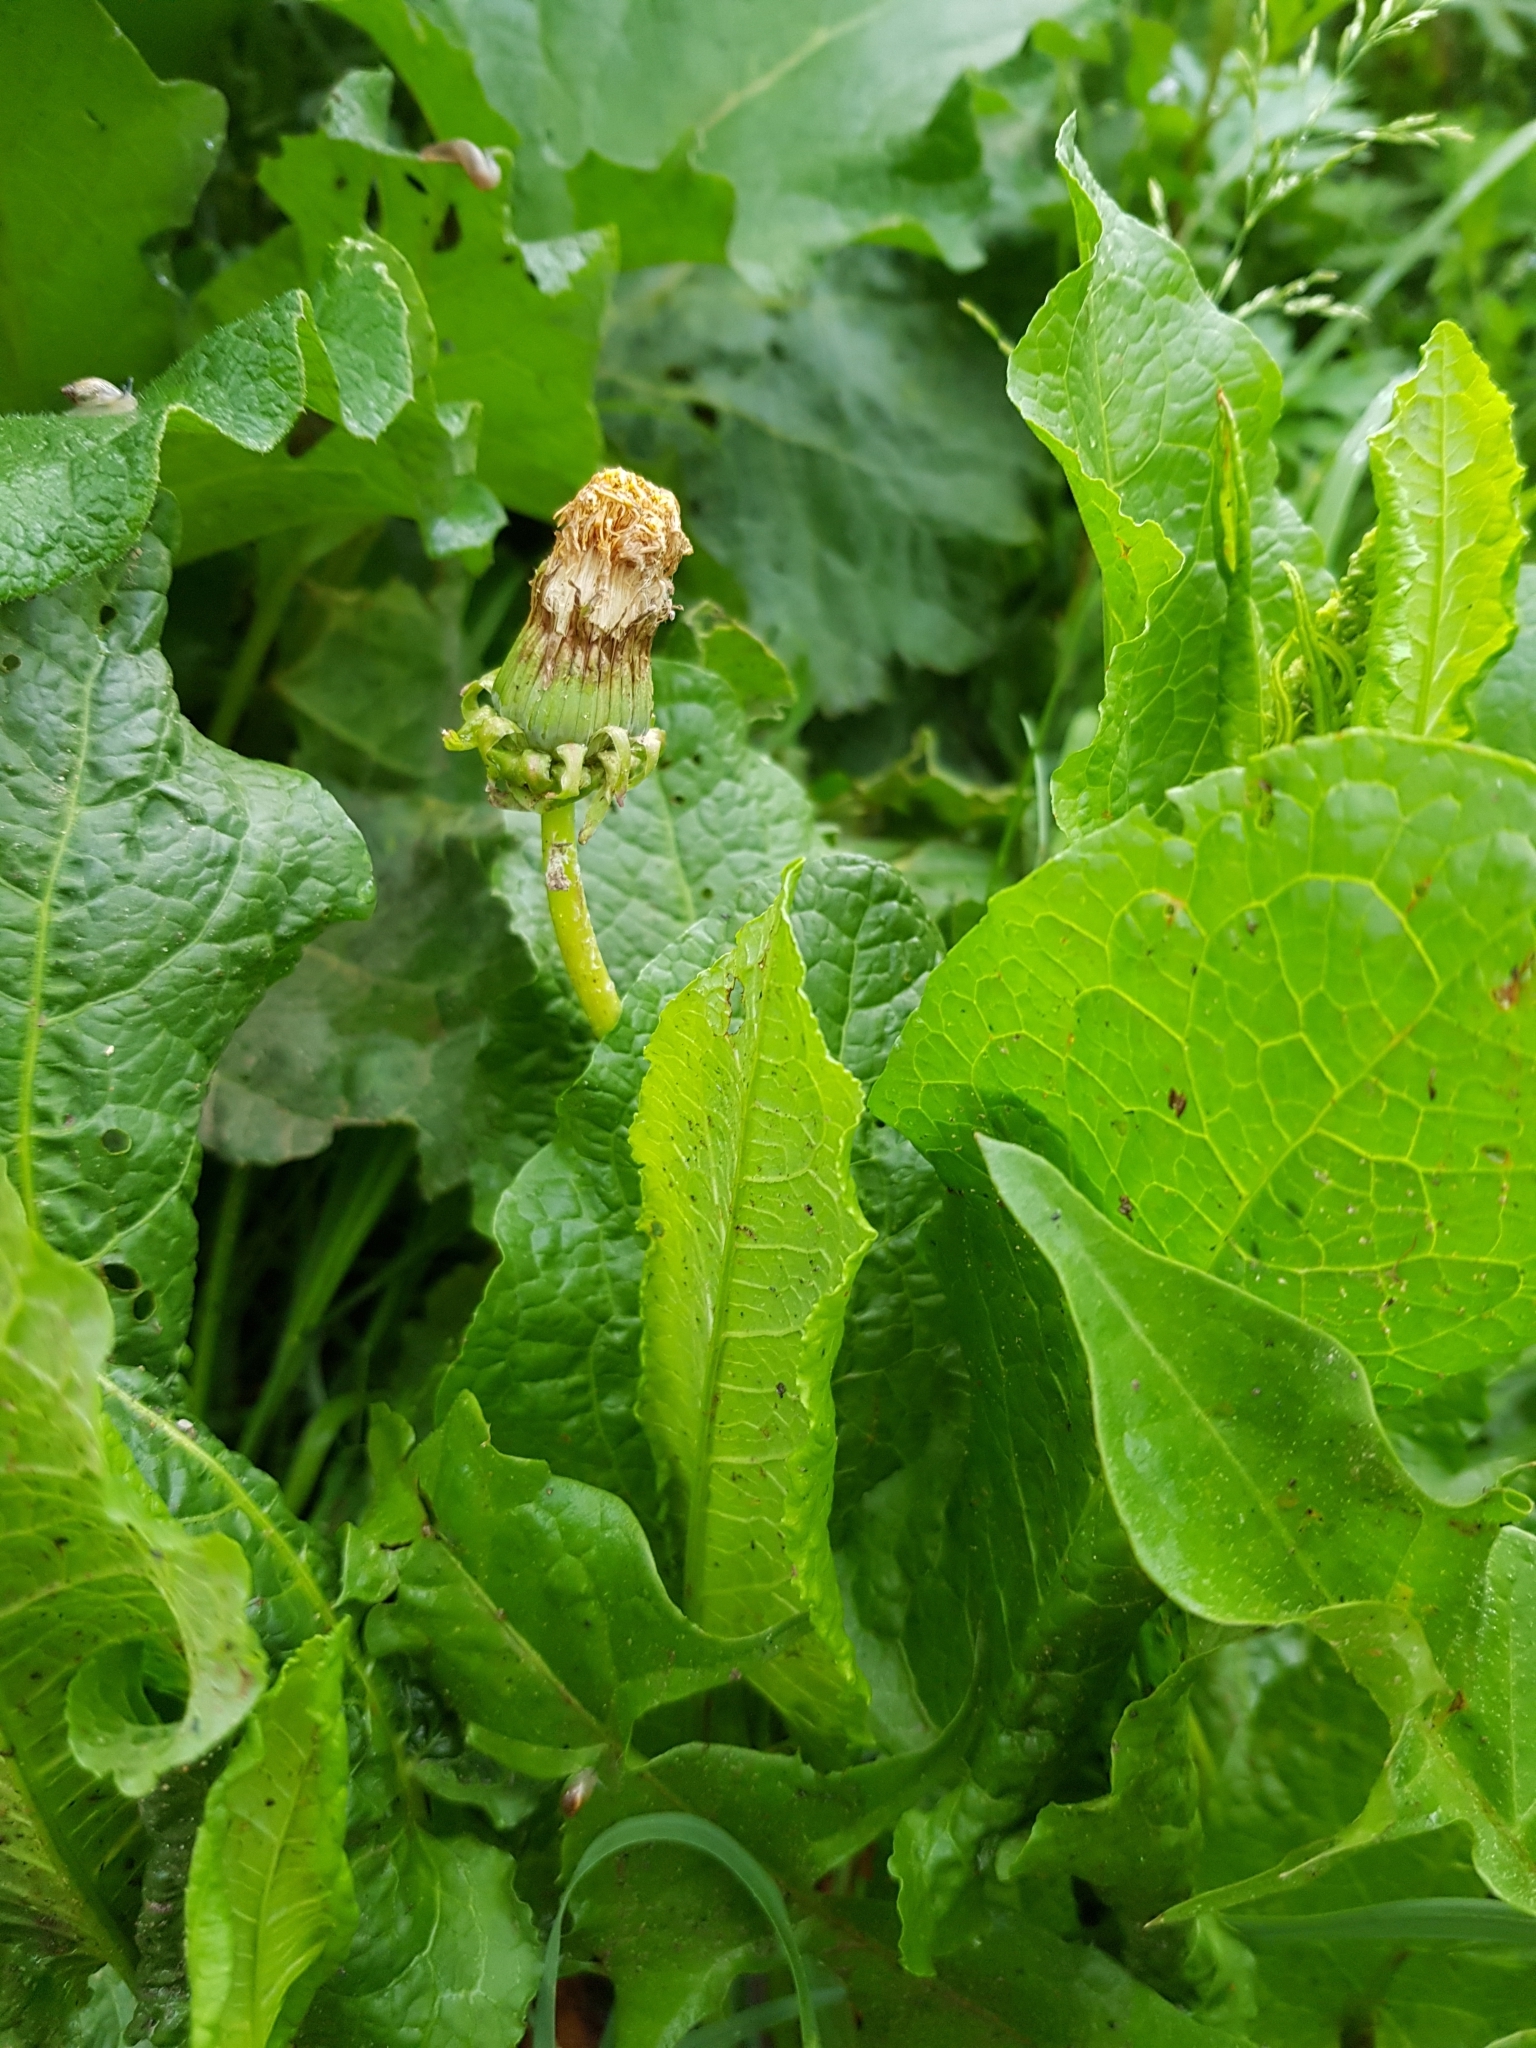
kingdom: Plantae
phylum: Tracheophyta
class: Magnoliopsida
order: Asterales
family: Asteraceae
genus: Taraxacum
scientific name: Taraxacum officinale
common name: Common dandelion
